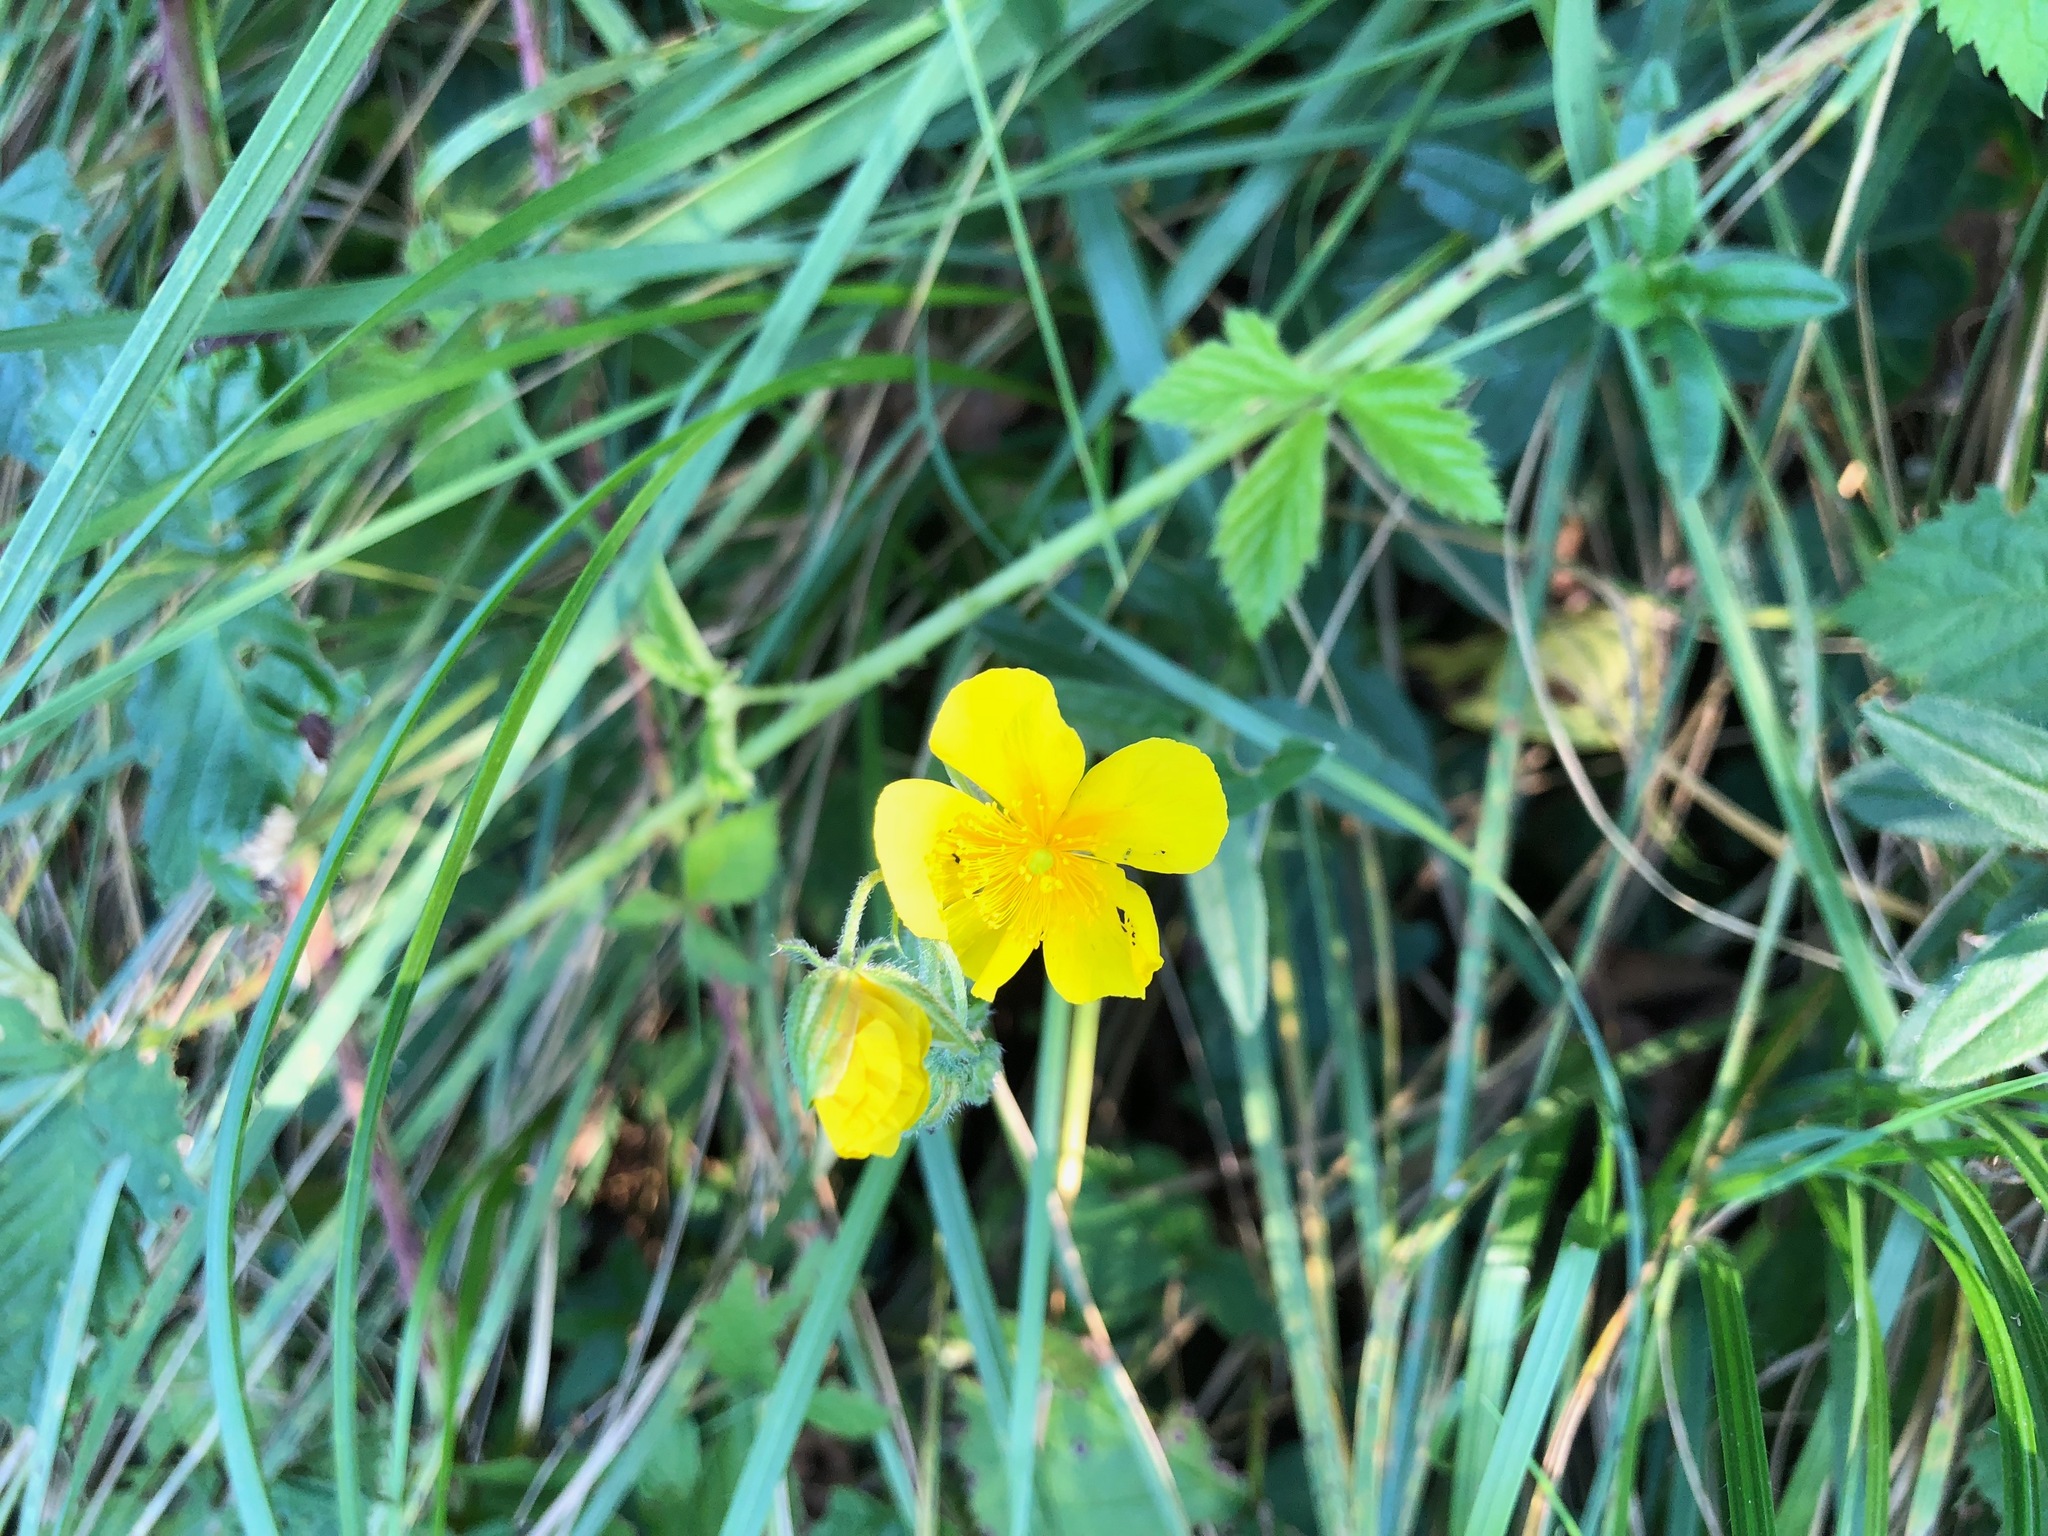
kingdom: Plantae
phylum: Tracheophyta
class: Magnoliopsida
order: Malvales
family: Cistaceae
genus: Helianthemum
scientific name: Helianthemum nummularium
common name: Common rock-rose
